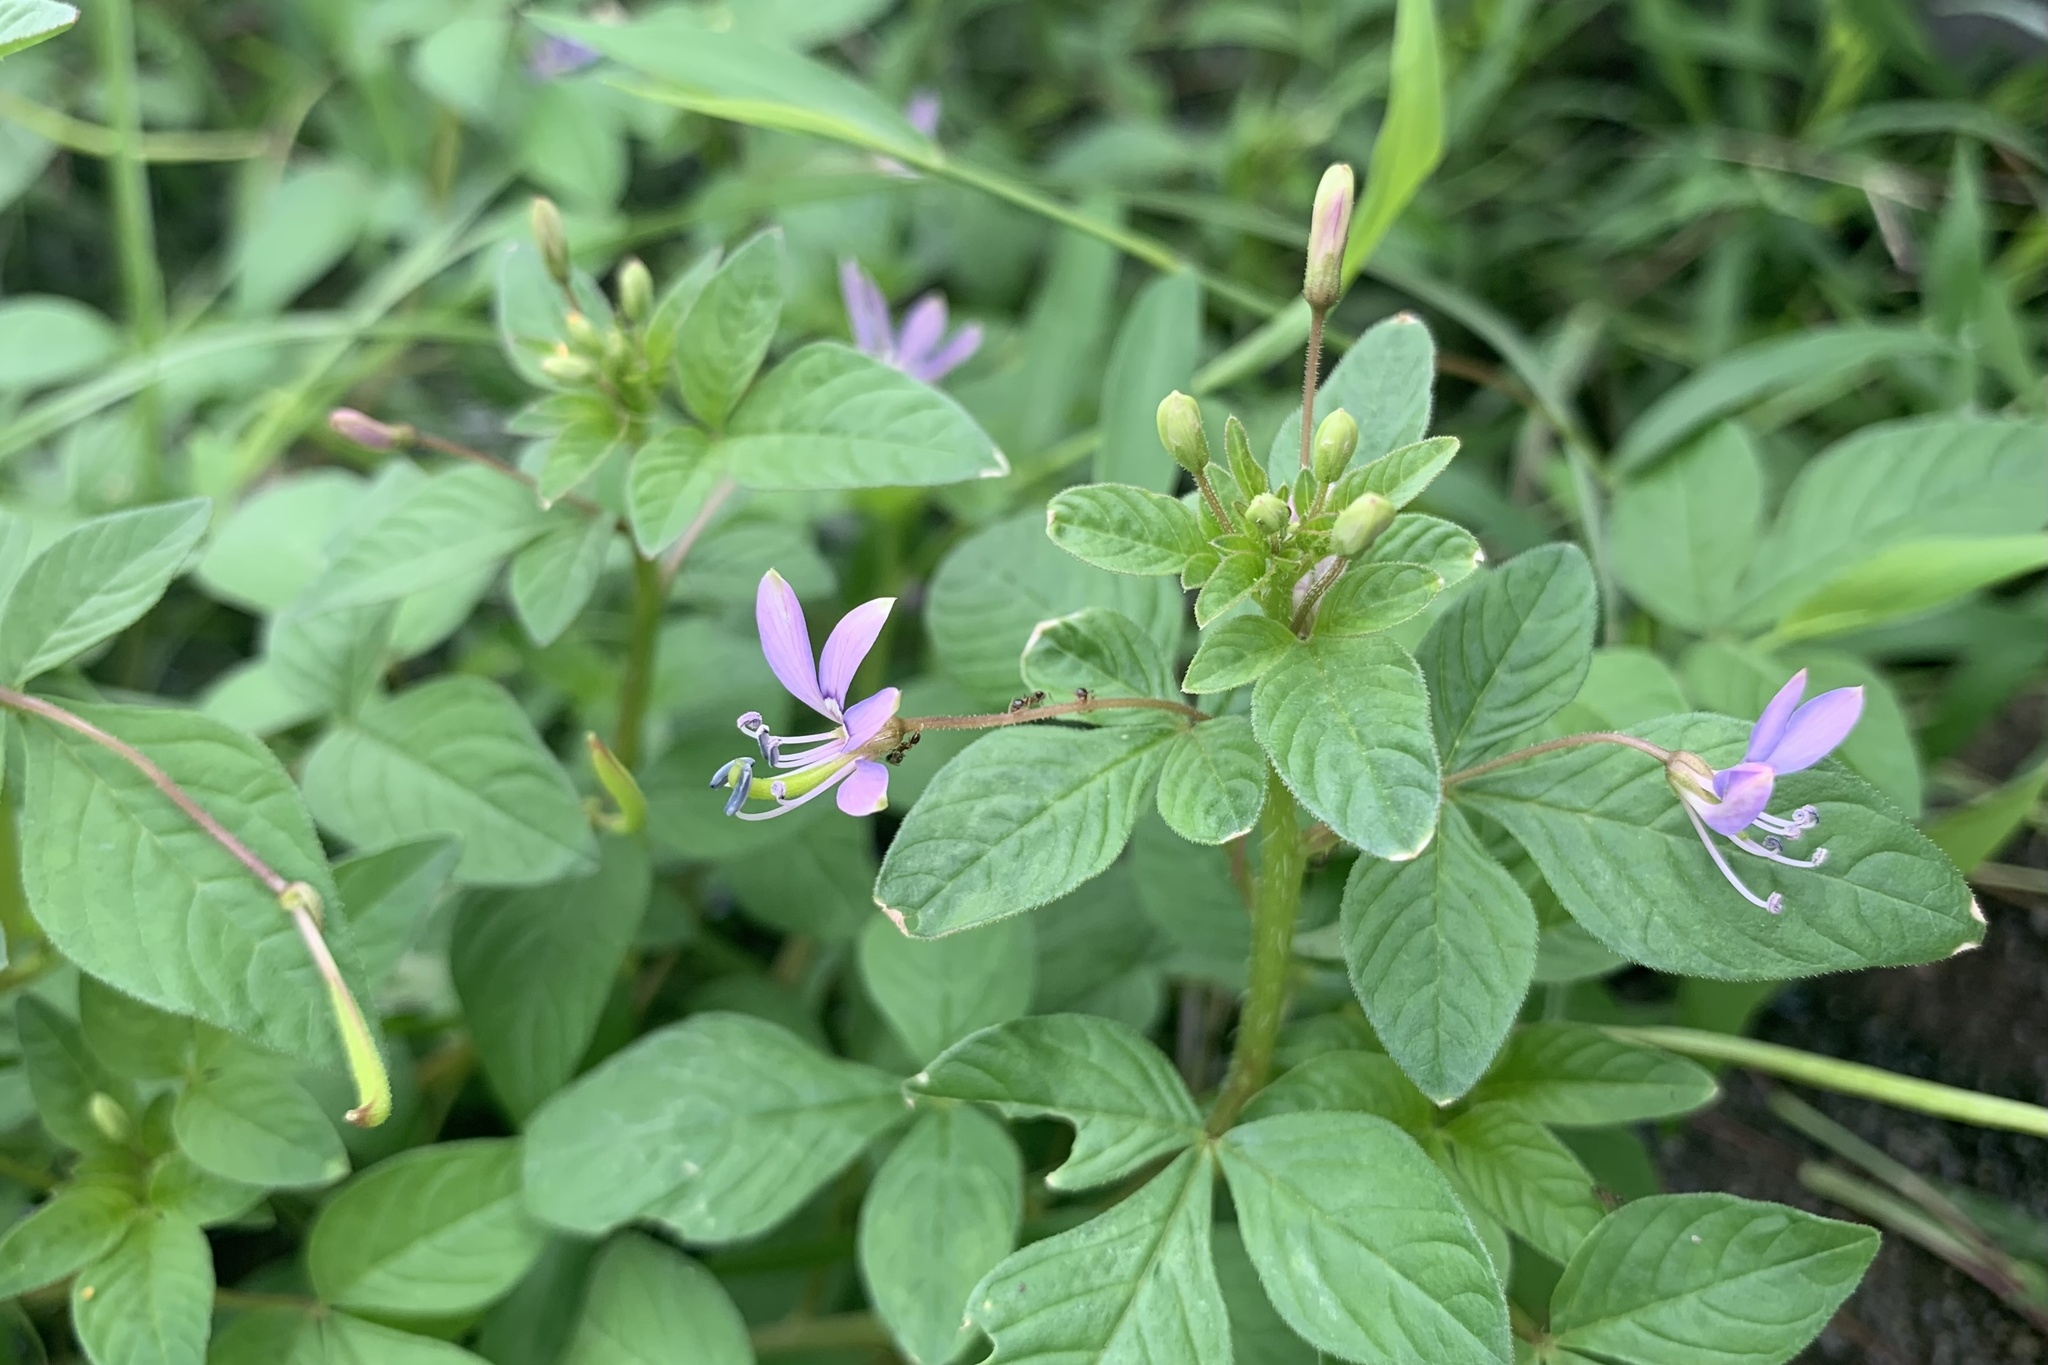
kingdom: Plantae
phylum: Tracheophyta
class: Magnoliopsida
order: Brassicales
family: Cleomaceae
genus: Sieruela
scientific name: Sieruela rutidosperma
